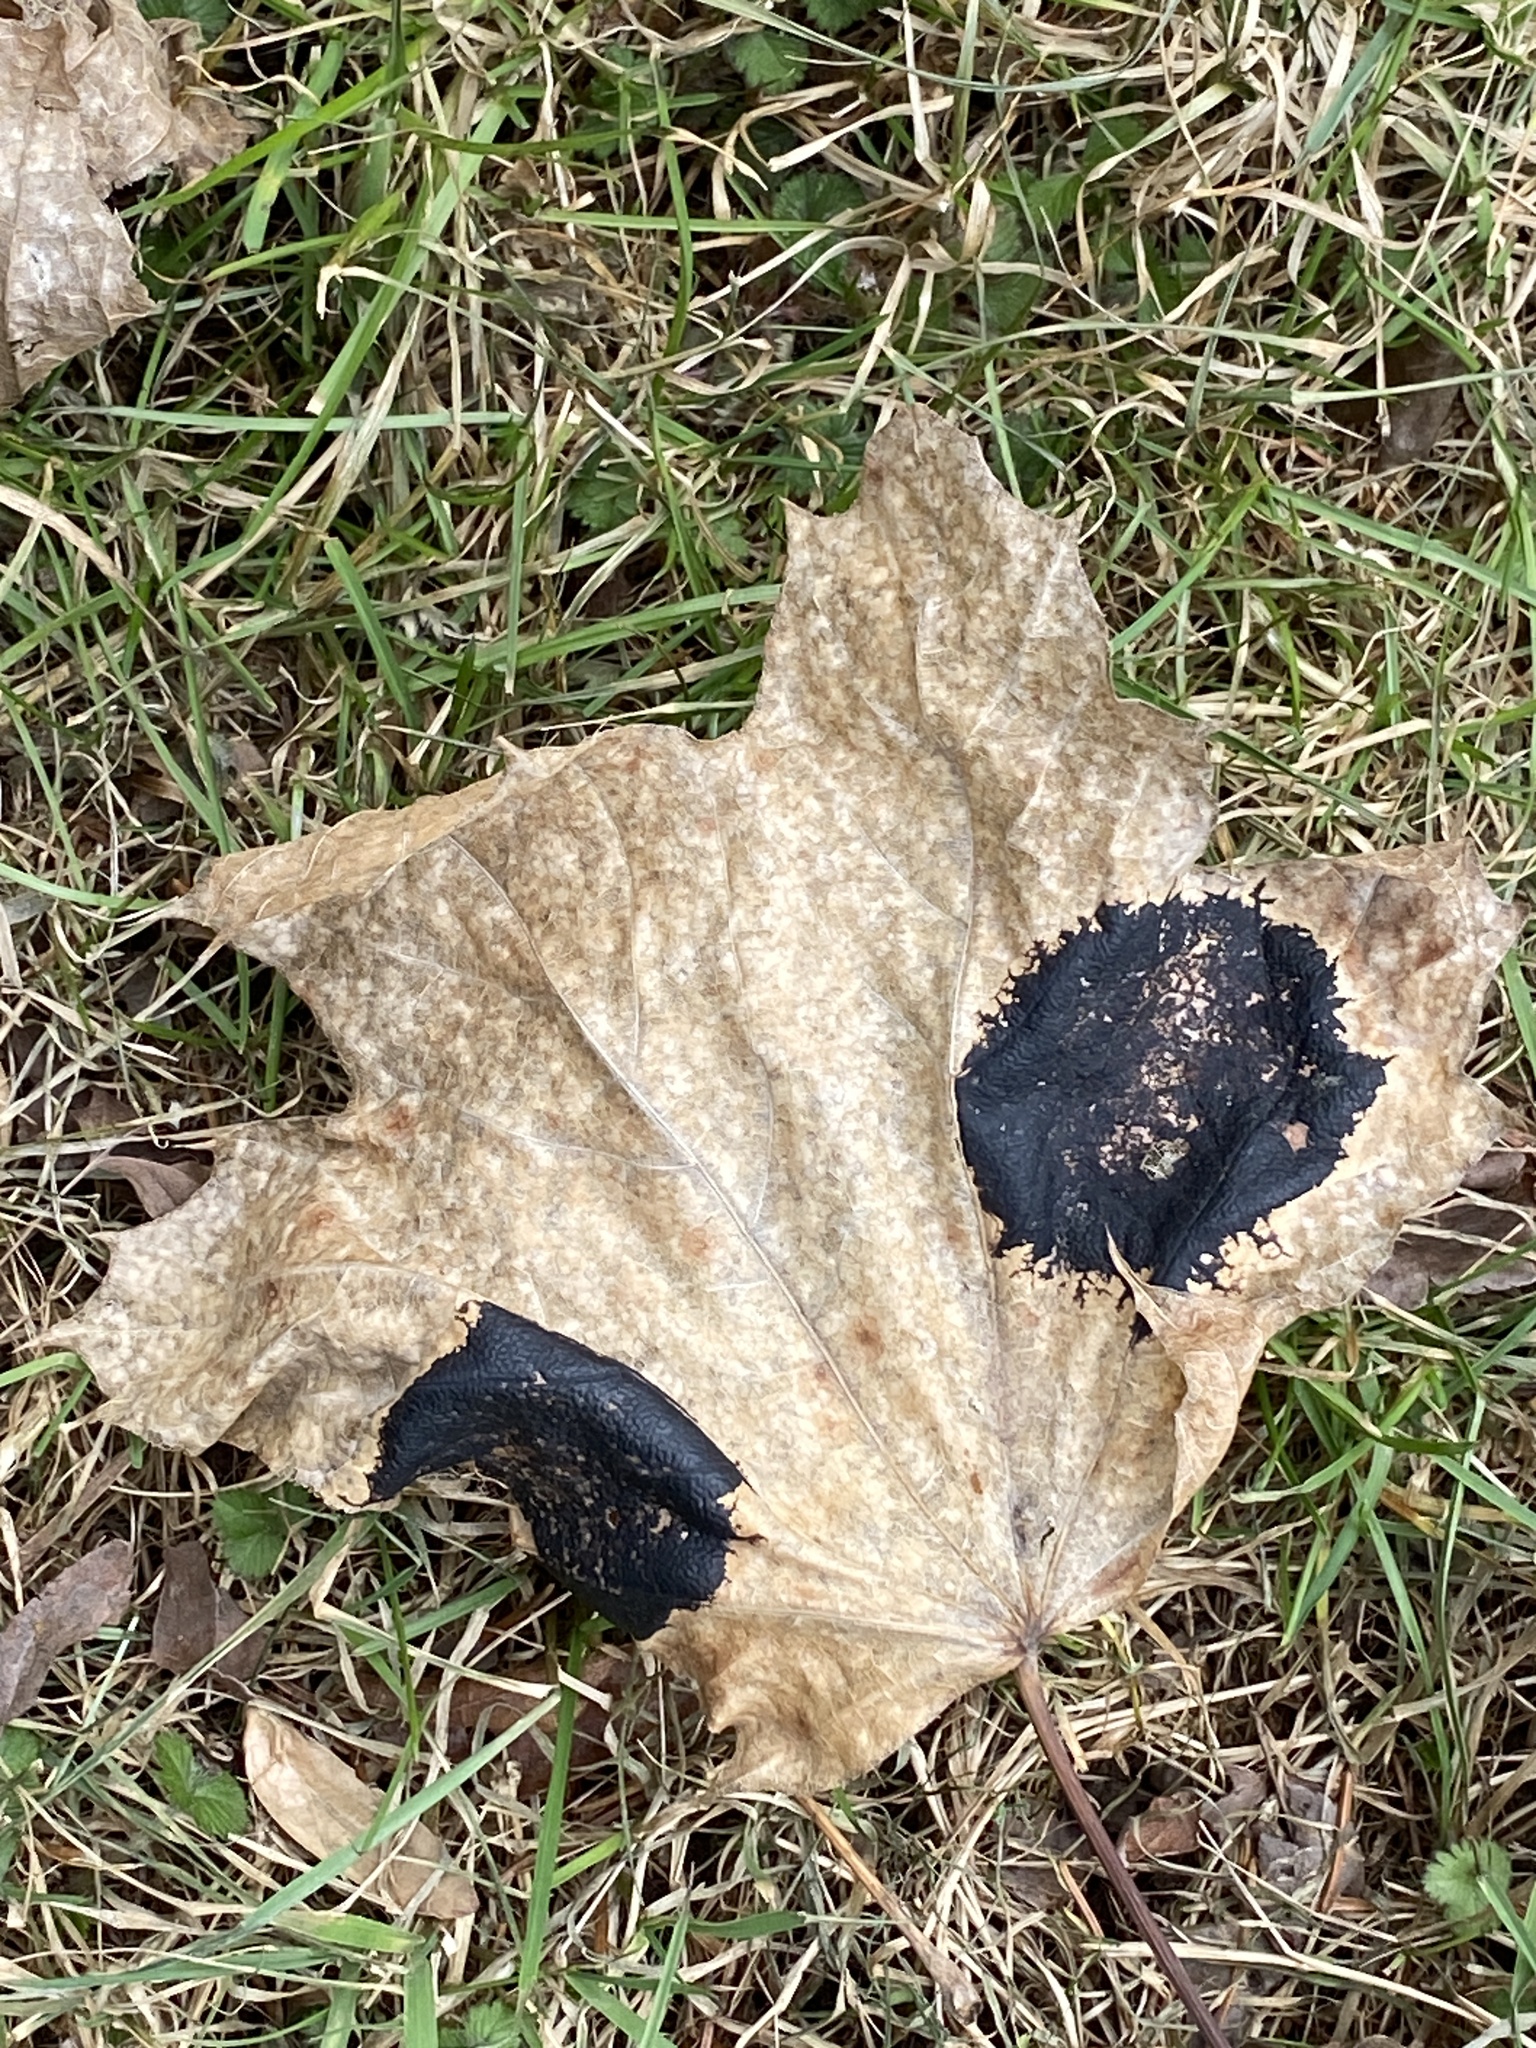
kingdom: Fungi
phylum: Ascomycota
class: Leotiomycetes
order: Rhytismatales
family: Rhytismataceae
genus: Rhytisma
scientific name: Rhytisma acerinum
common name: European tar spot
